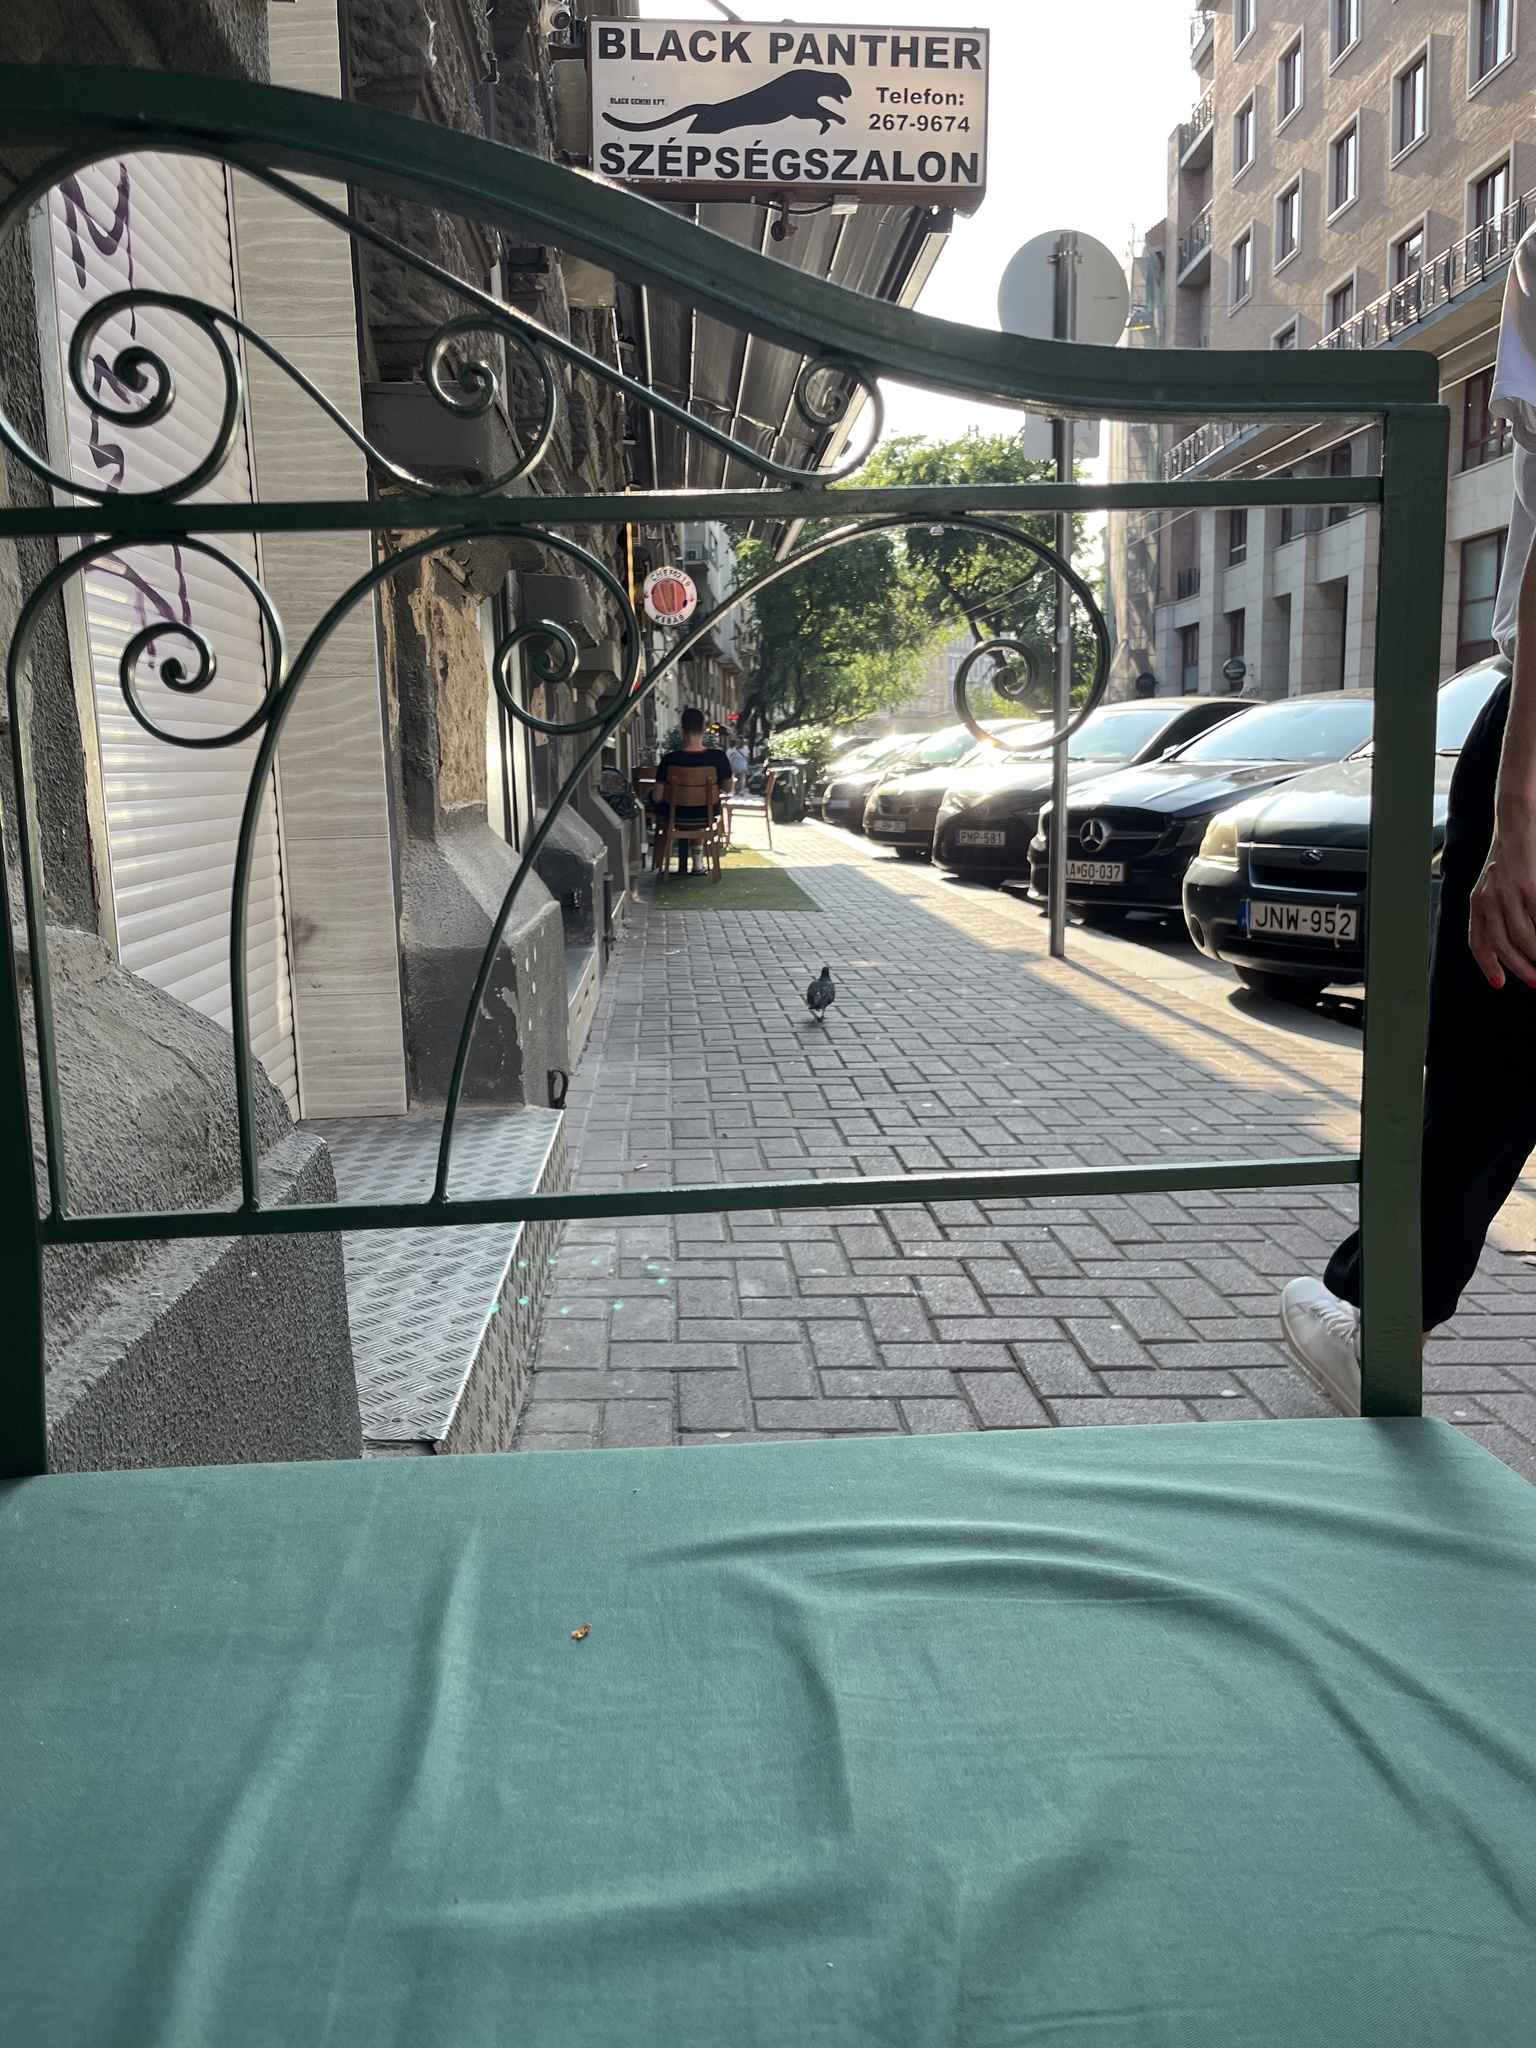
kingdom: Animalia
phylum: Chordata
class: Aves
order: Columbiformes
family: Columbidae
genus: Columba
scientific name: Columba livia
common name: Rock pigeon
